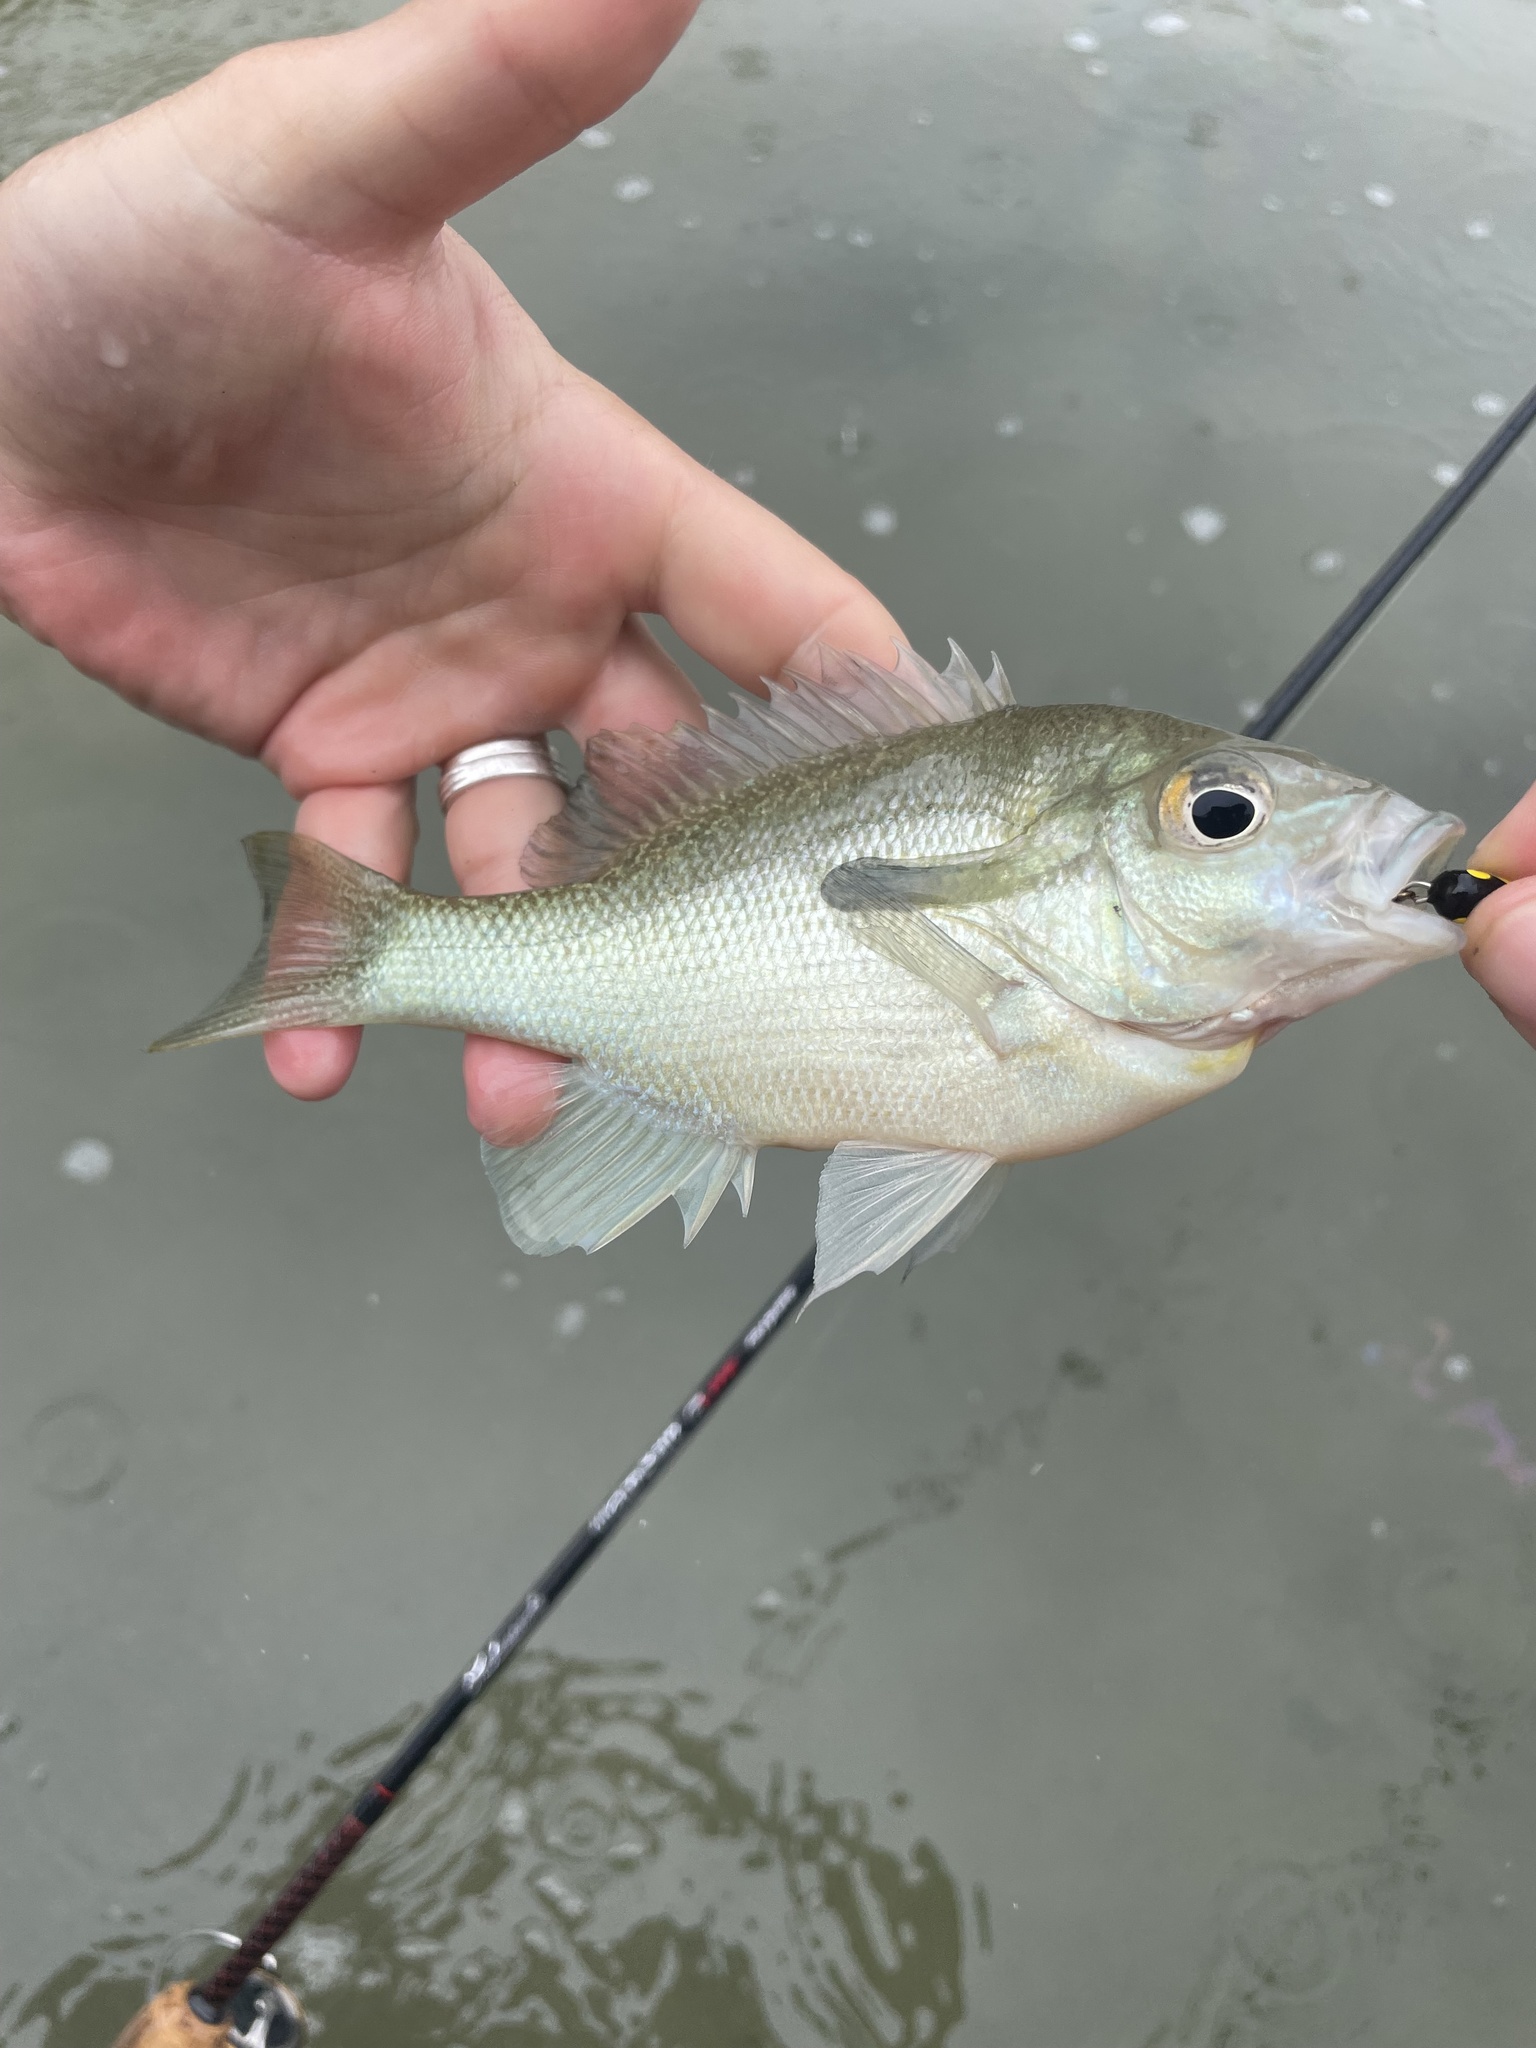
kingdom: Animalia
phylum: Chordata
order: Perciformes
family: Centrarchidae
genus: Lepomis
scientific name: Lepomis auritus
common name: Redbreast sunfish
